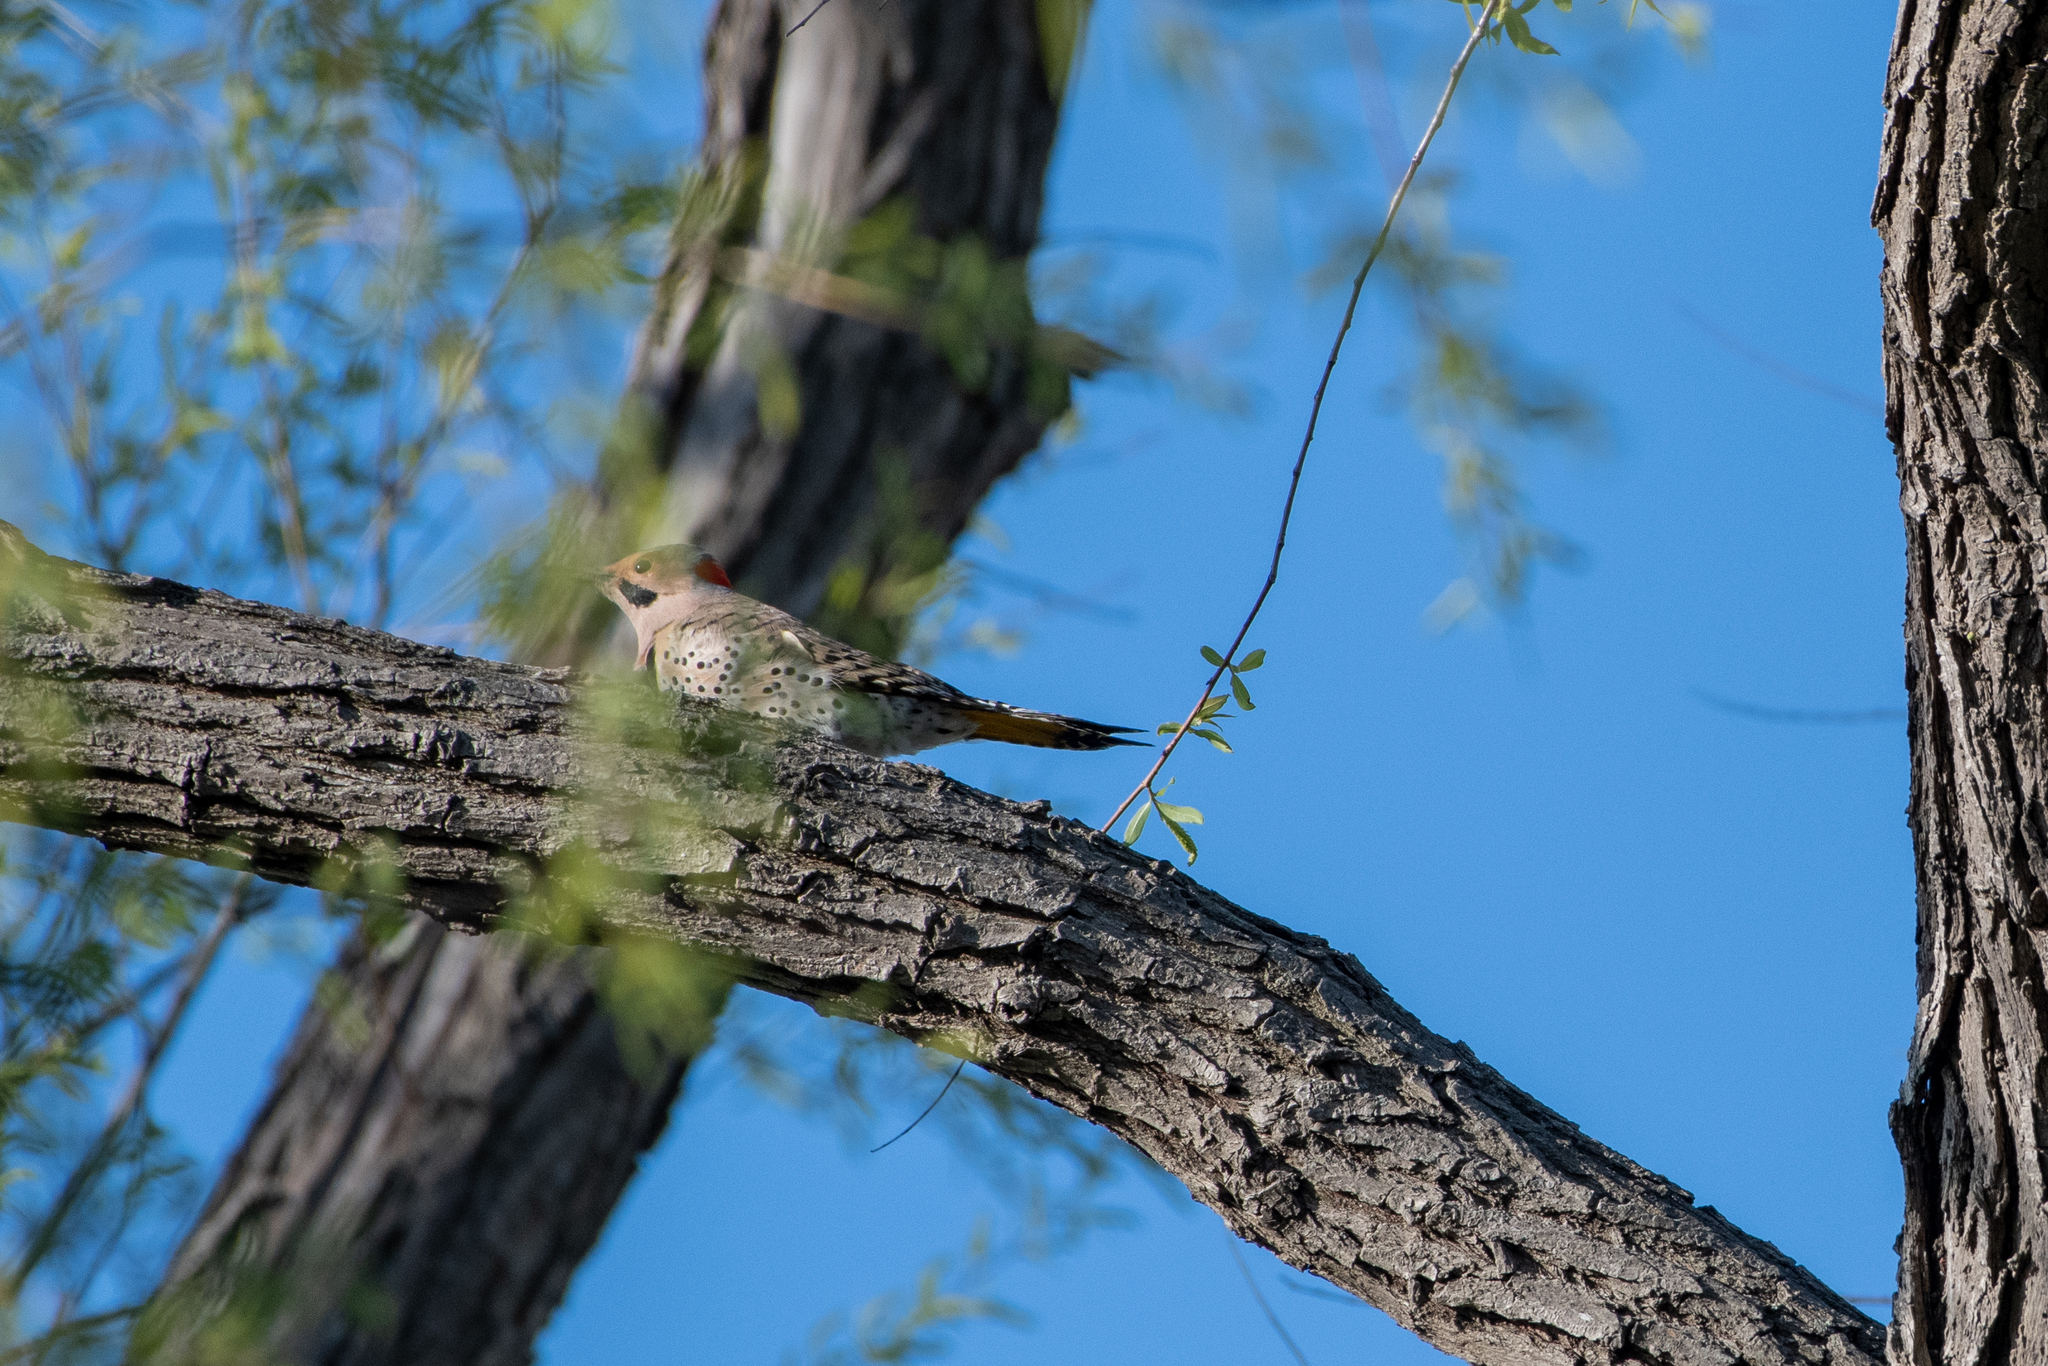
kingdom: Animalia
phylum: Chordata
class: Aves
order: Piciformes
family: Picidae
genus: Colaptes
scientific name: Colaptes auratus
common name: Northern flicker
